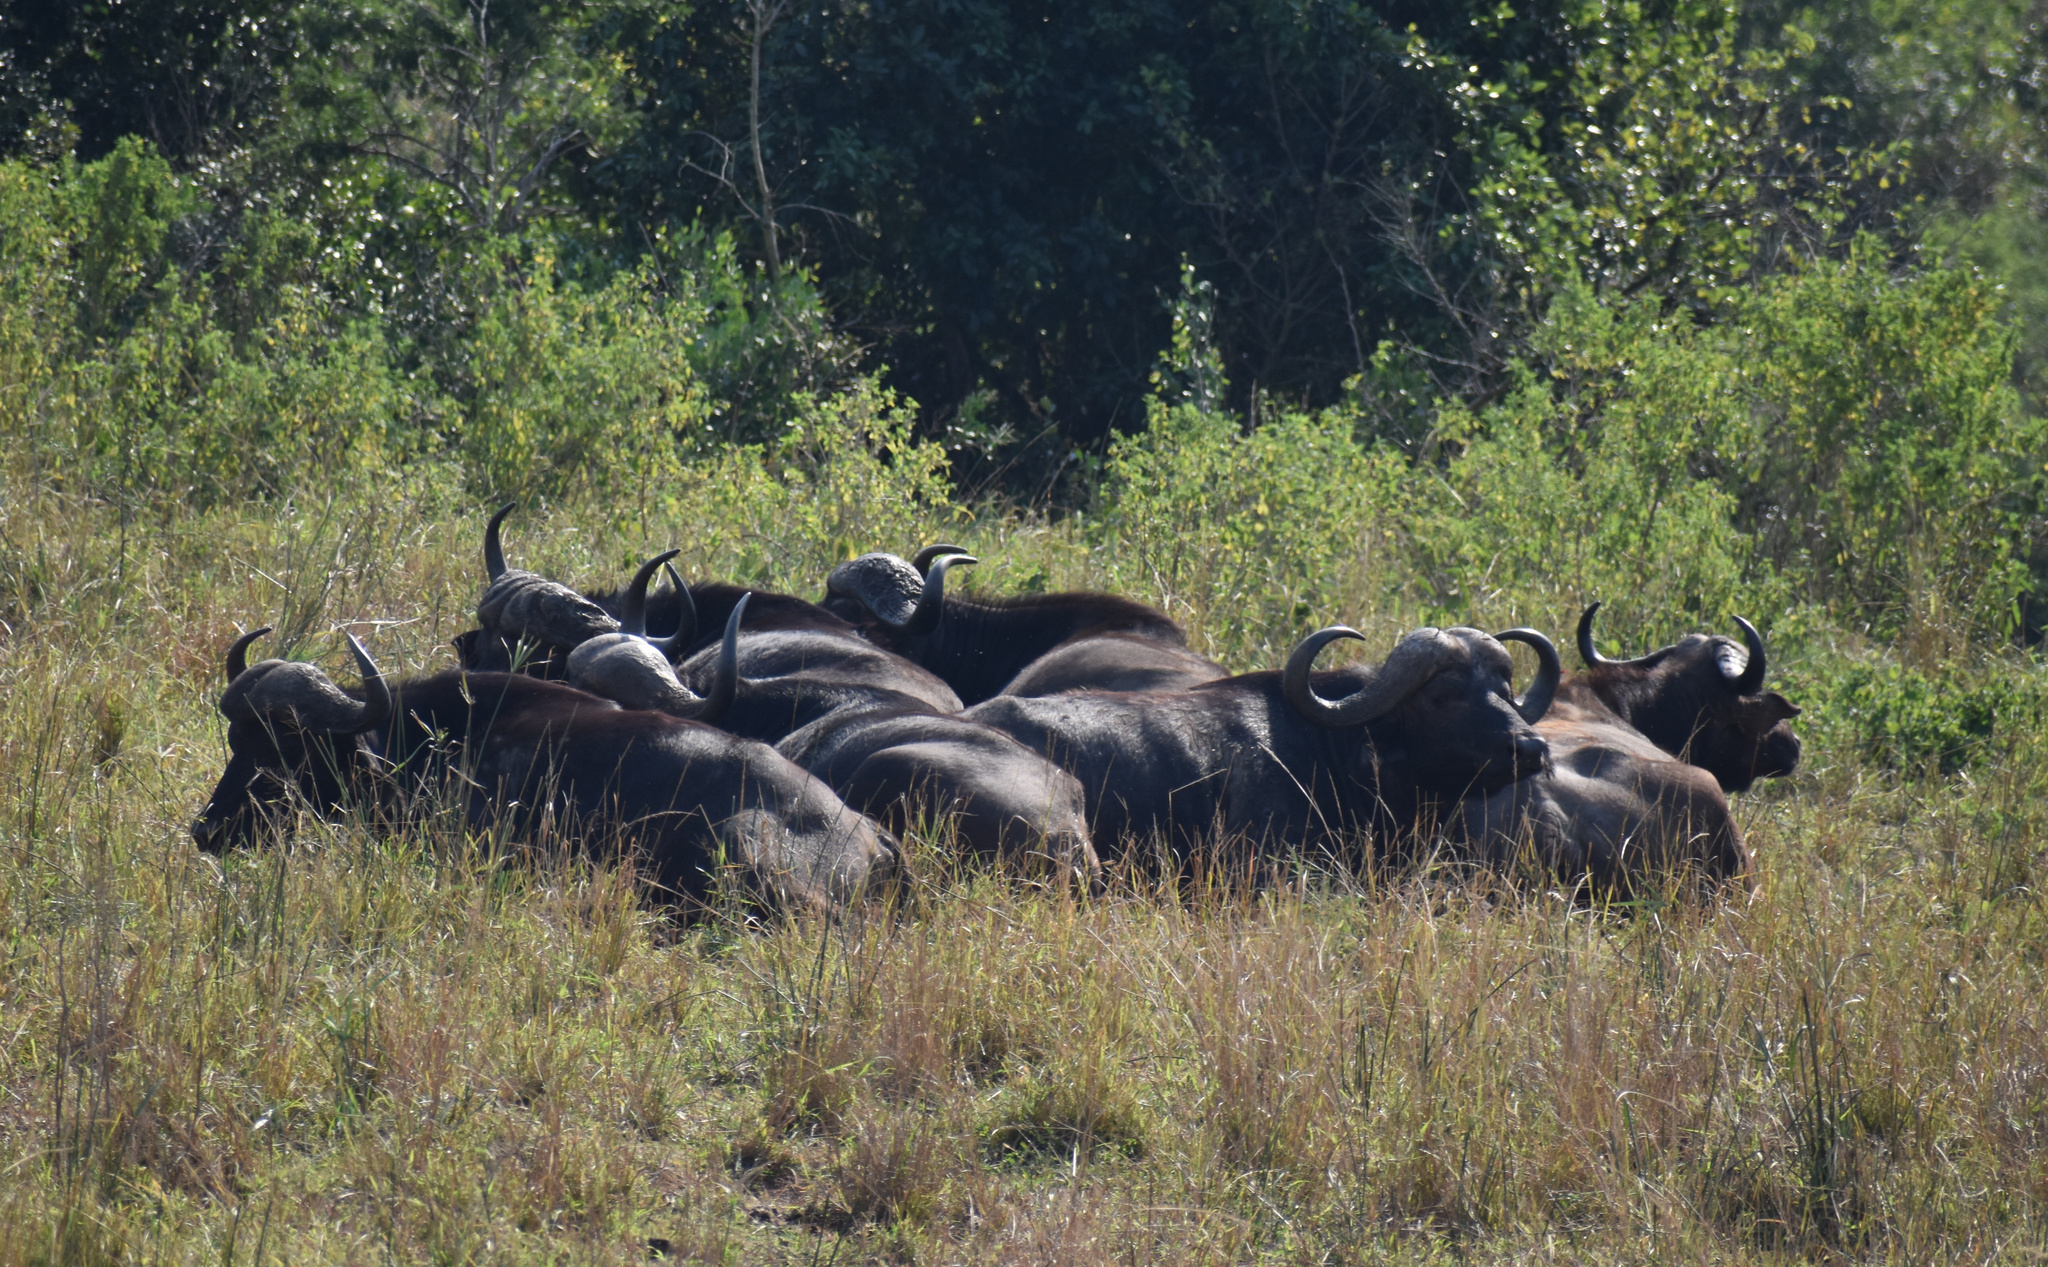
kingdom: Animalia
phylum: Chordata
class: Mammalia
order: Artiodactyla
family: Bovidae
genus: Syncerus
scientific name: Syncerus caffer
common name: African buffalo
